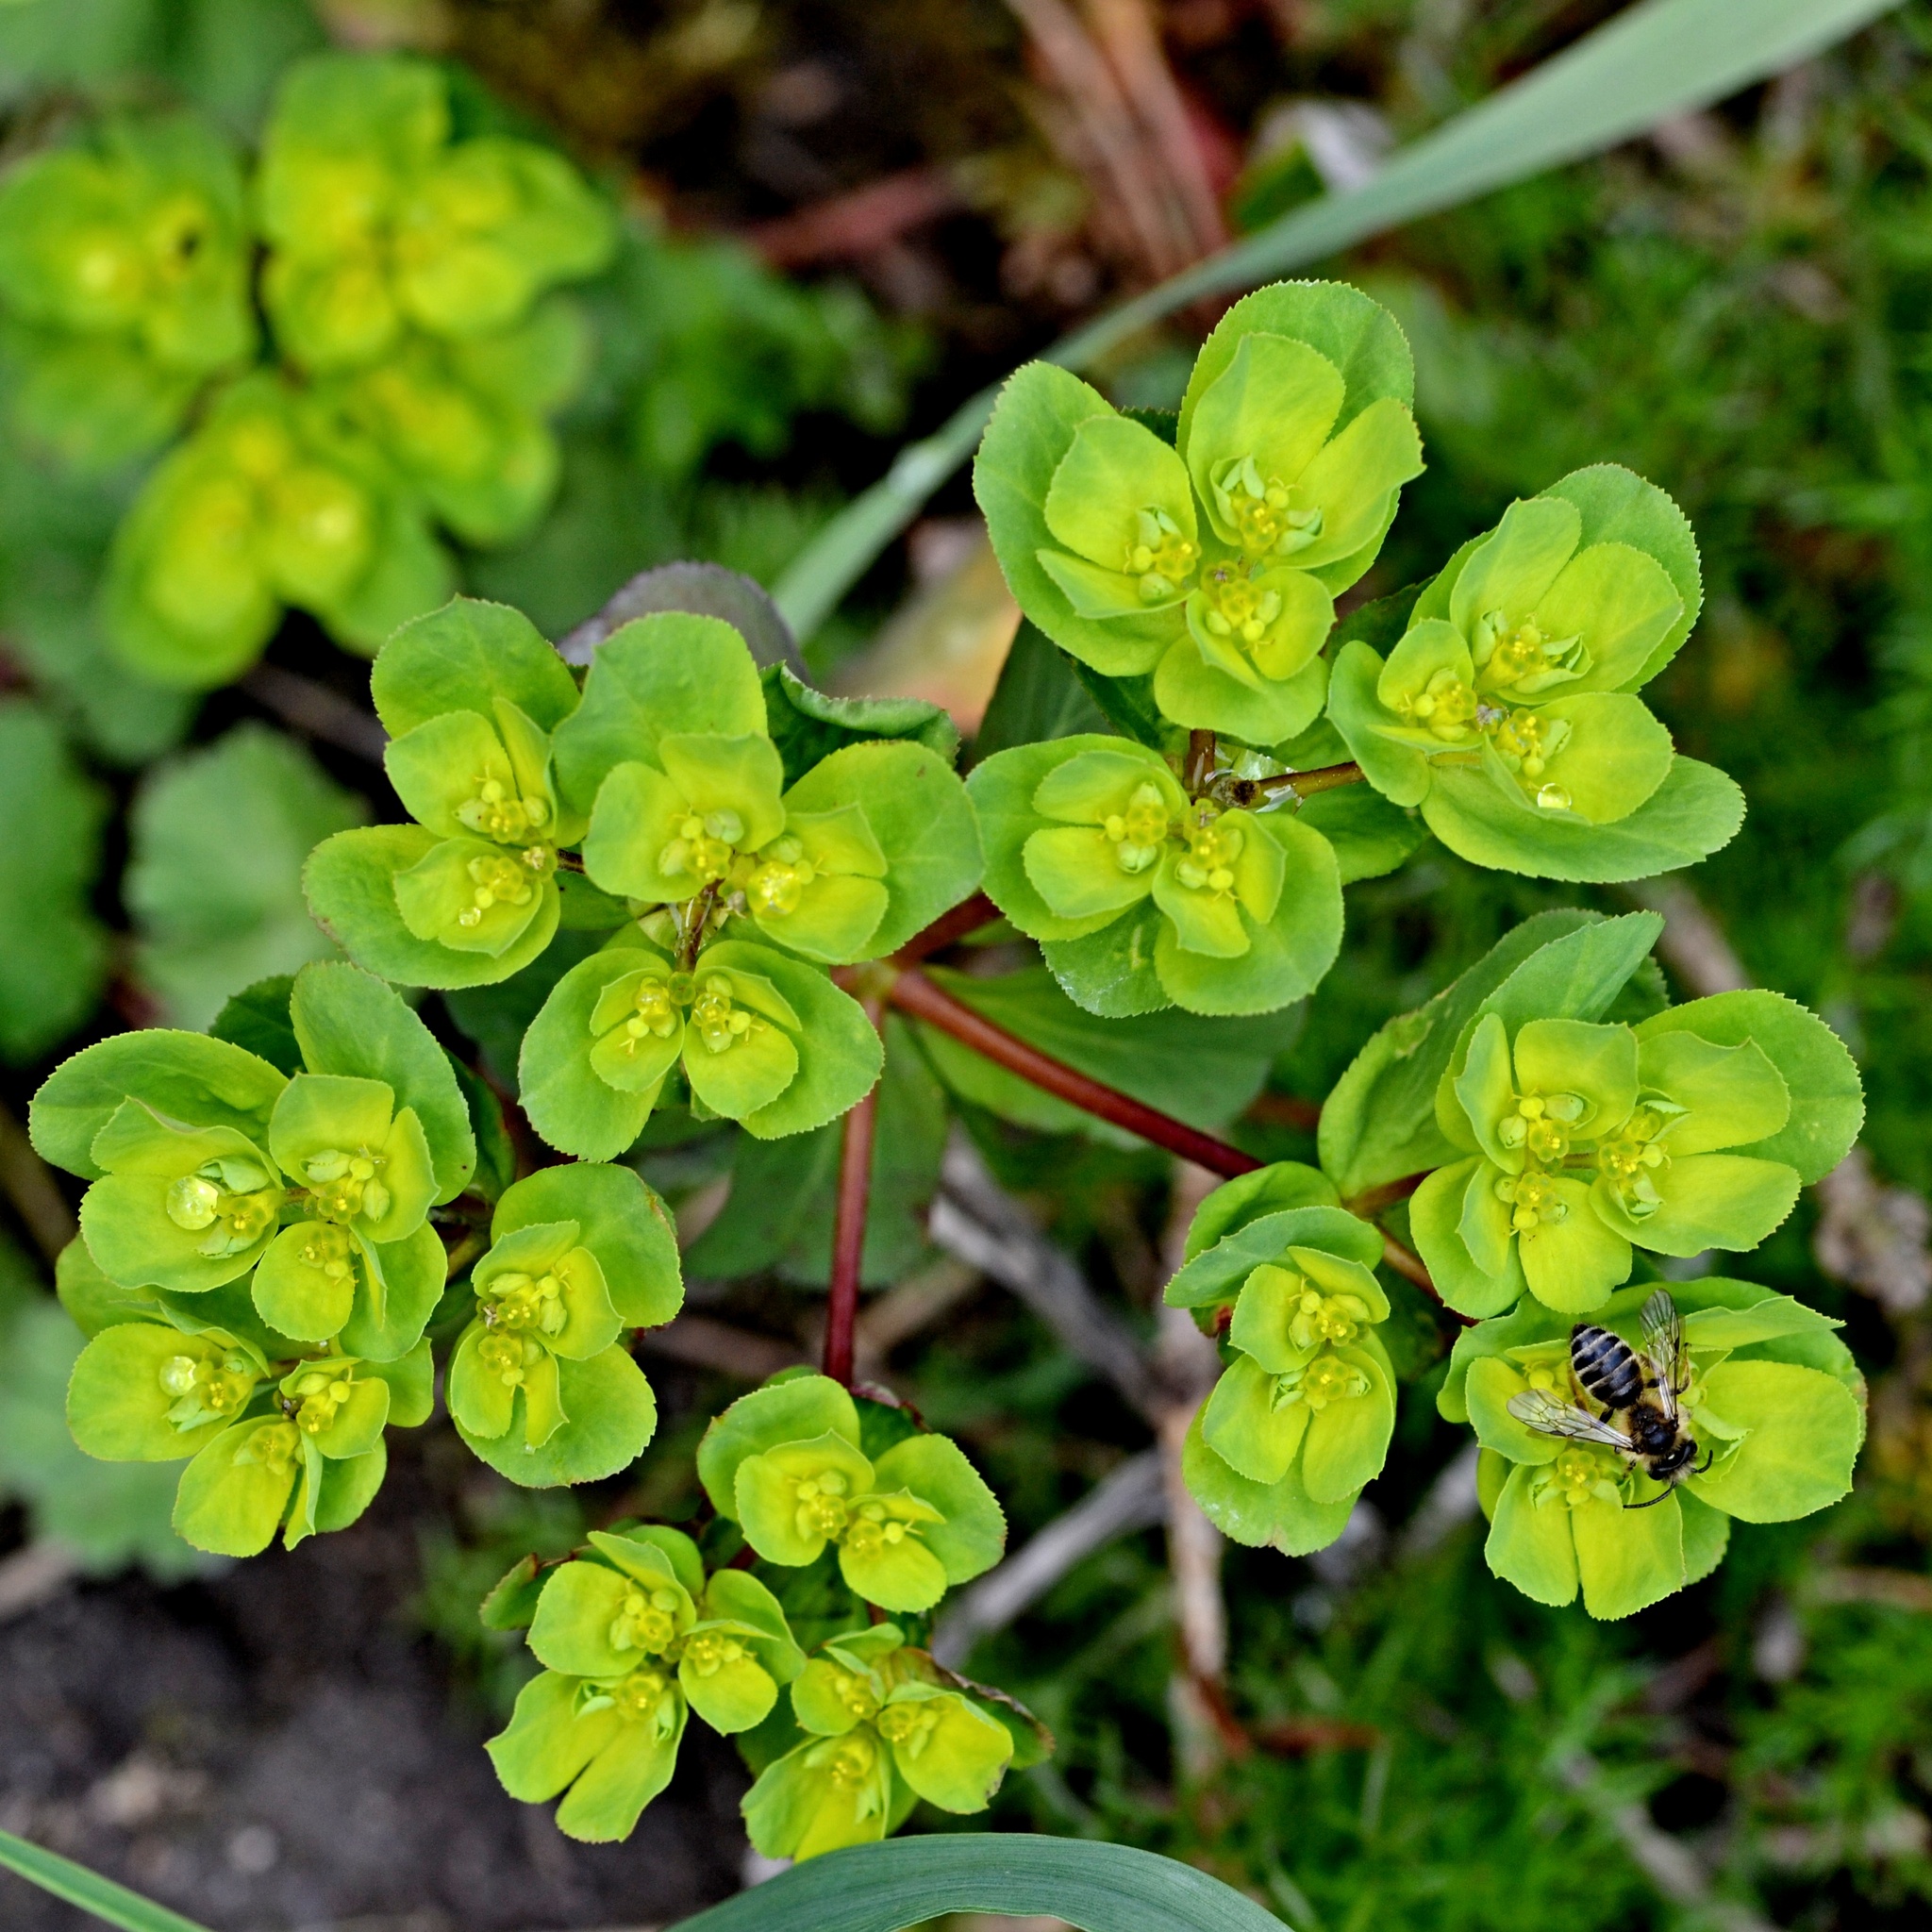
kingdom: Plantae
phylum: Tracheophyta
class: Magnoliopsida
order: Malpighiales
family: Euphorbiaceae
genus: Euphorbia
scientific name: Euphorbia helioscopia
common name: Sun spurge
